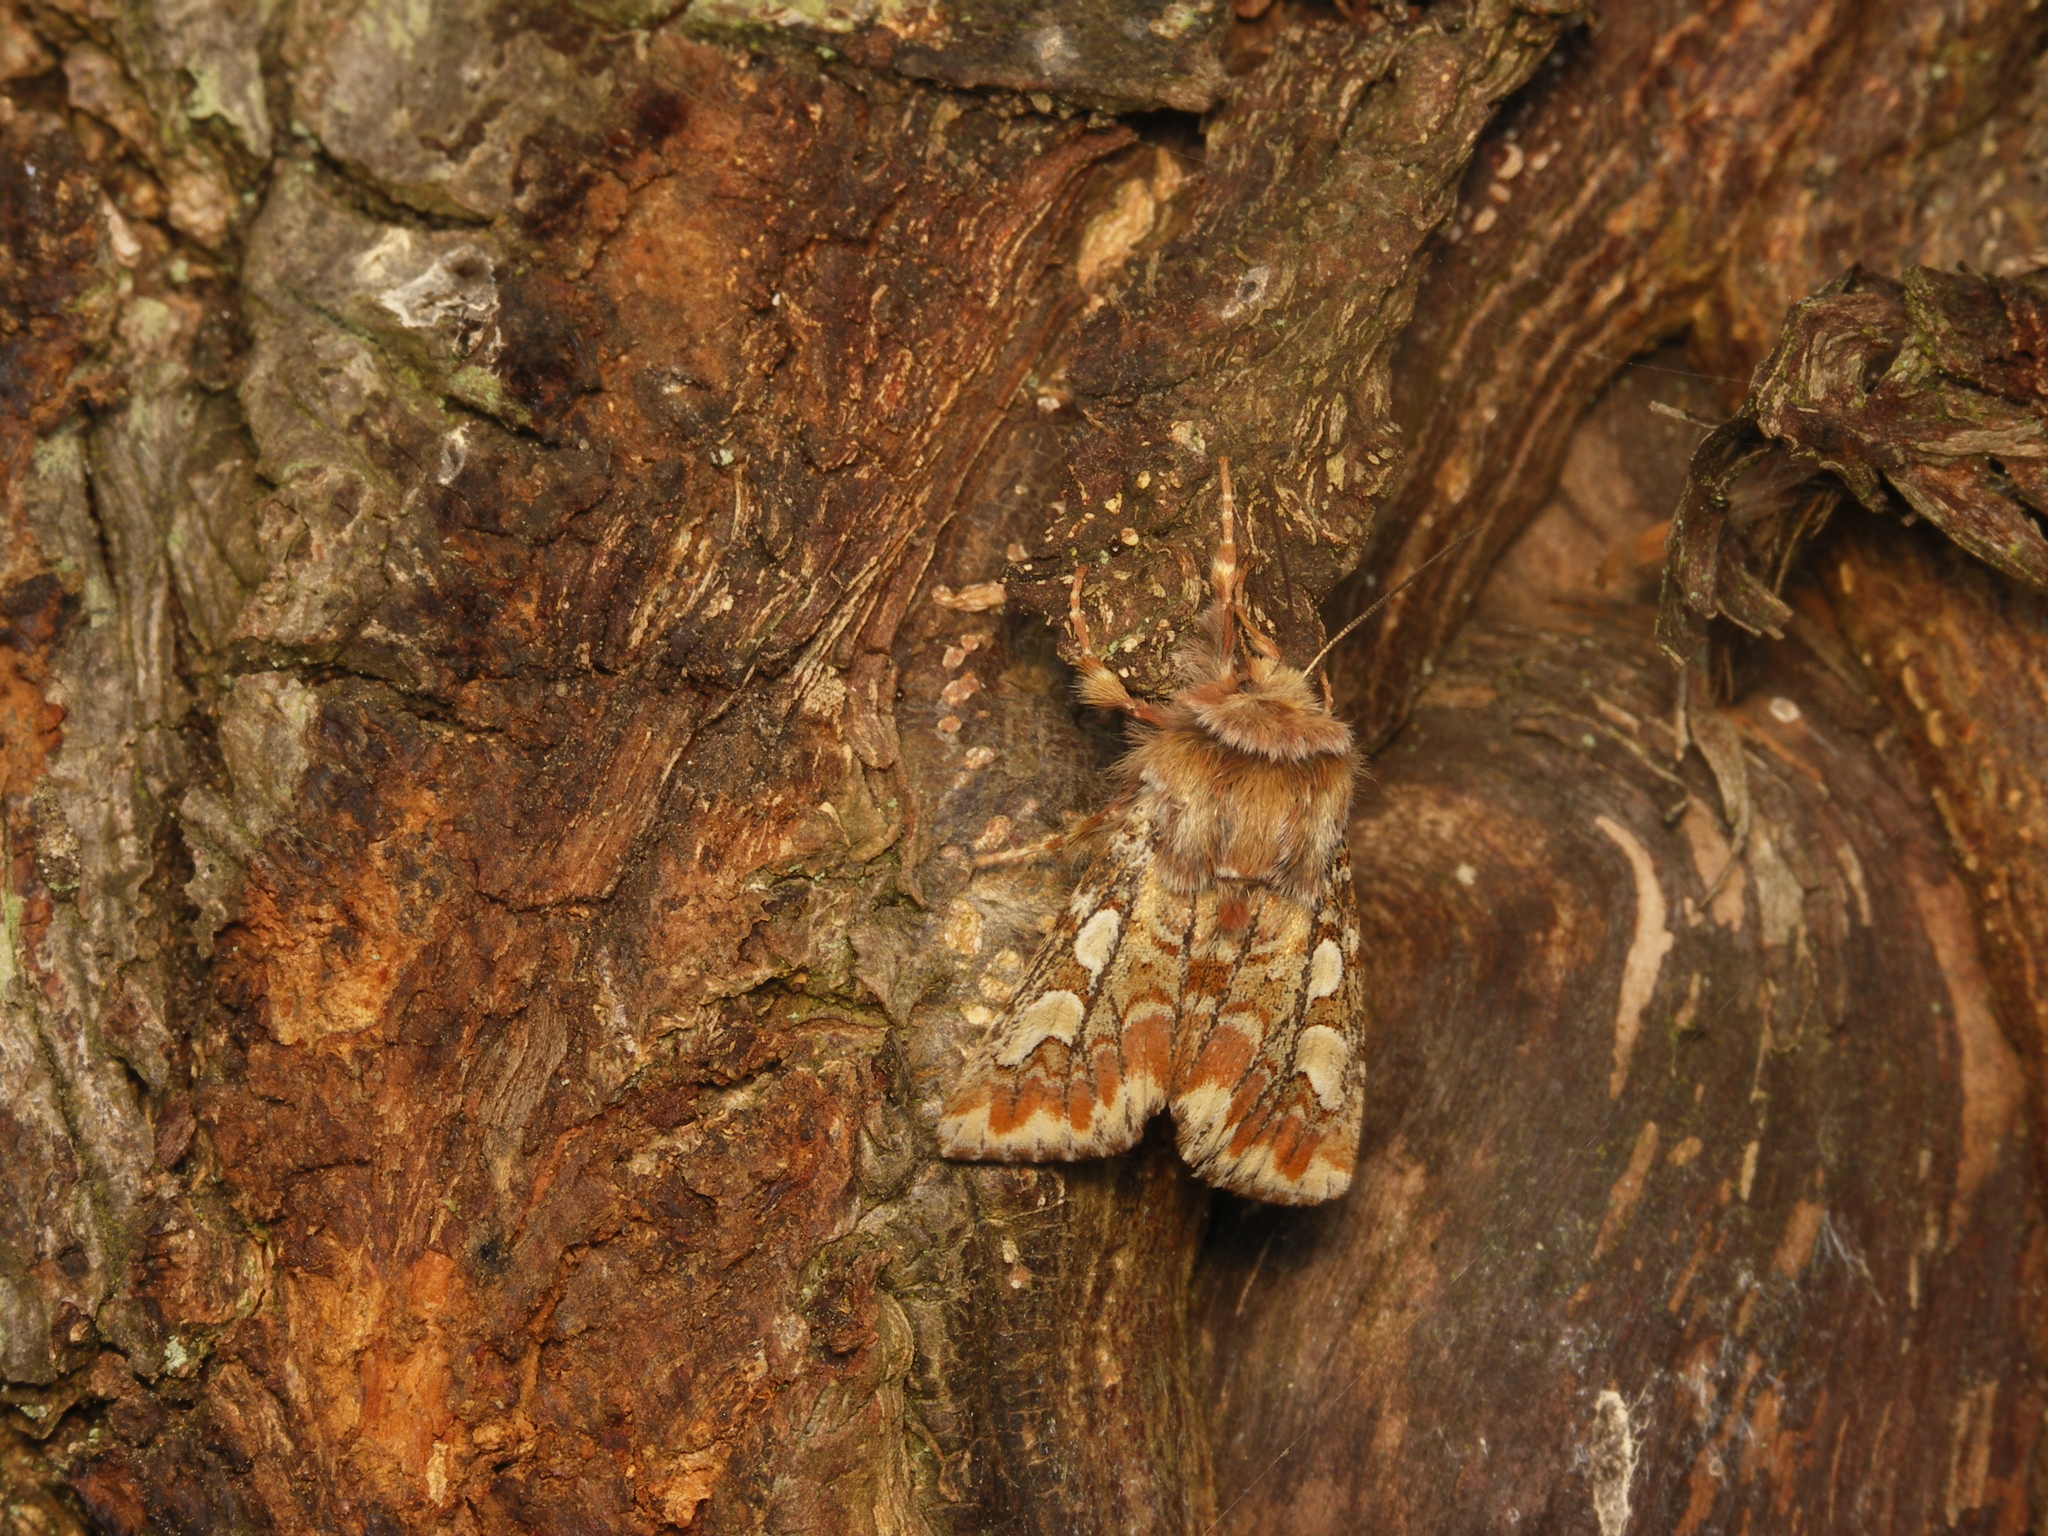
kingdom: Animalia
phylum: Arthropoda
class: Insecta
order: Lepidoptera
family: Noctuidae
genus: Panolis
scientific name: Panolis flammea
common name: Pine beauty
